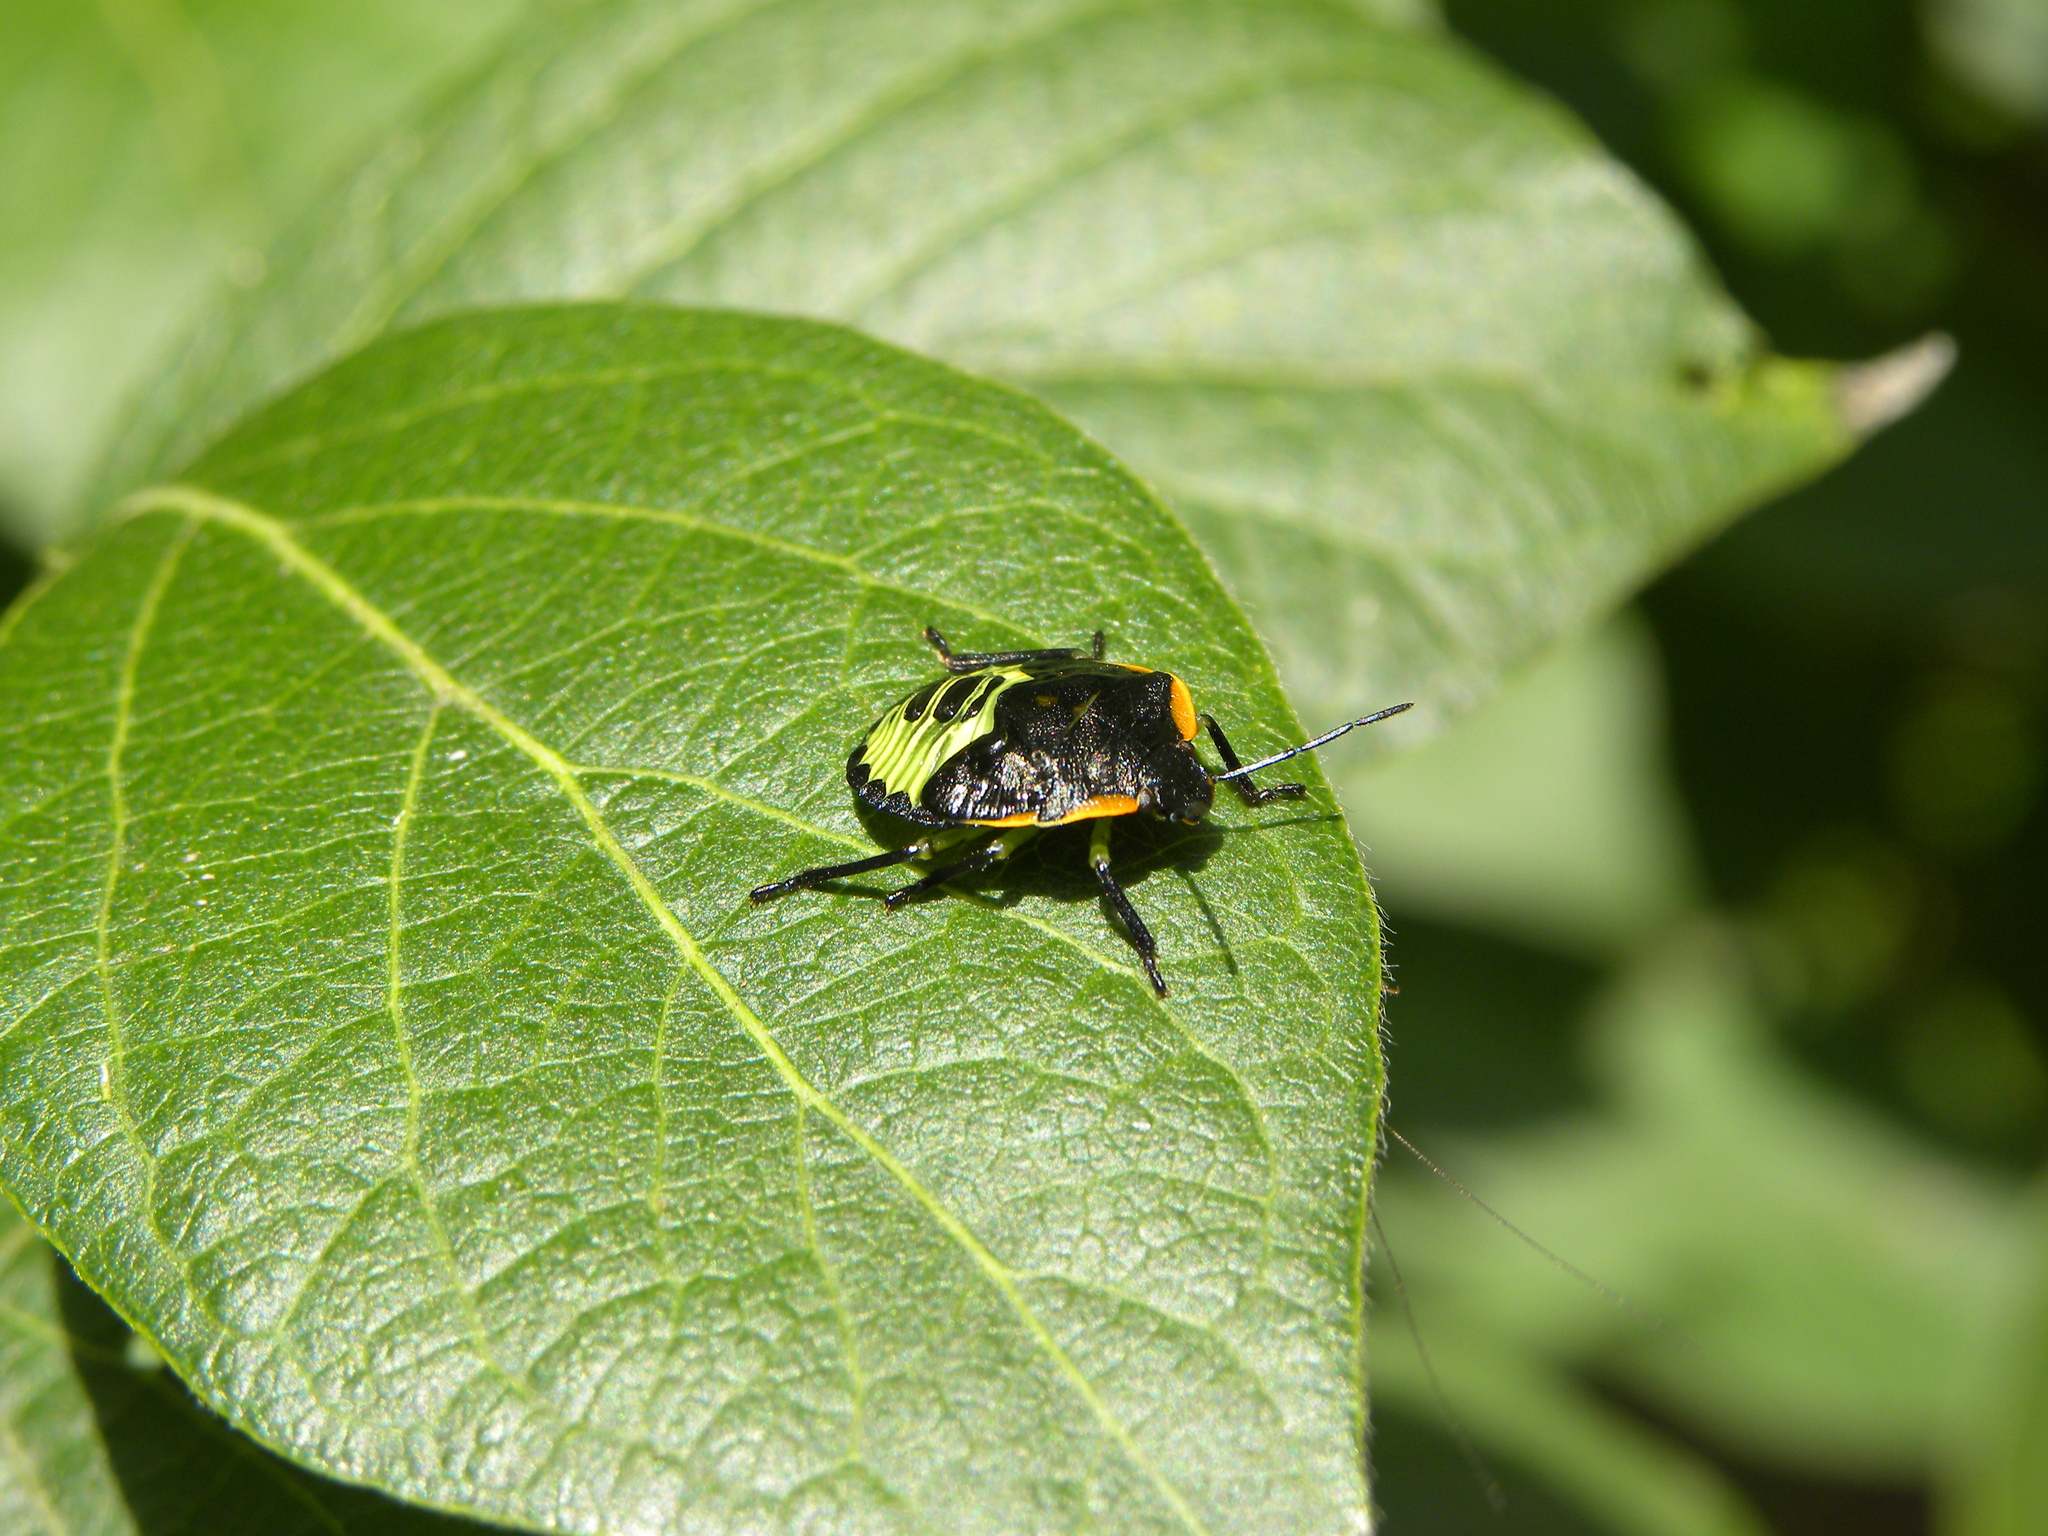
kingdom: Animalia
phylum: Arthropoda
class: Insecta
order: Hemiptera
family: Pentatomidae
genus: Chinavia
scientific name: Chinavia hilaris
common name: Green stink bug
